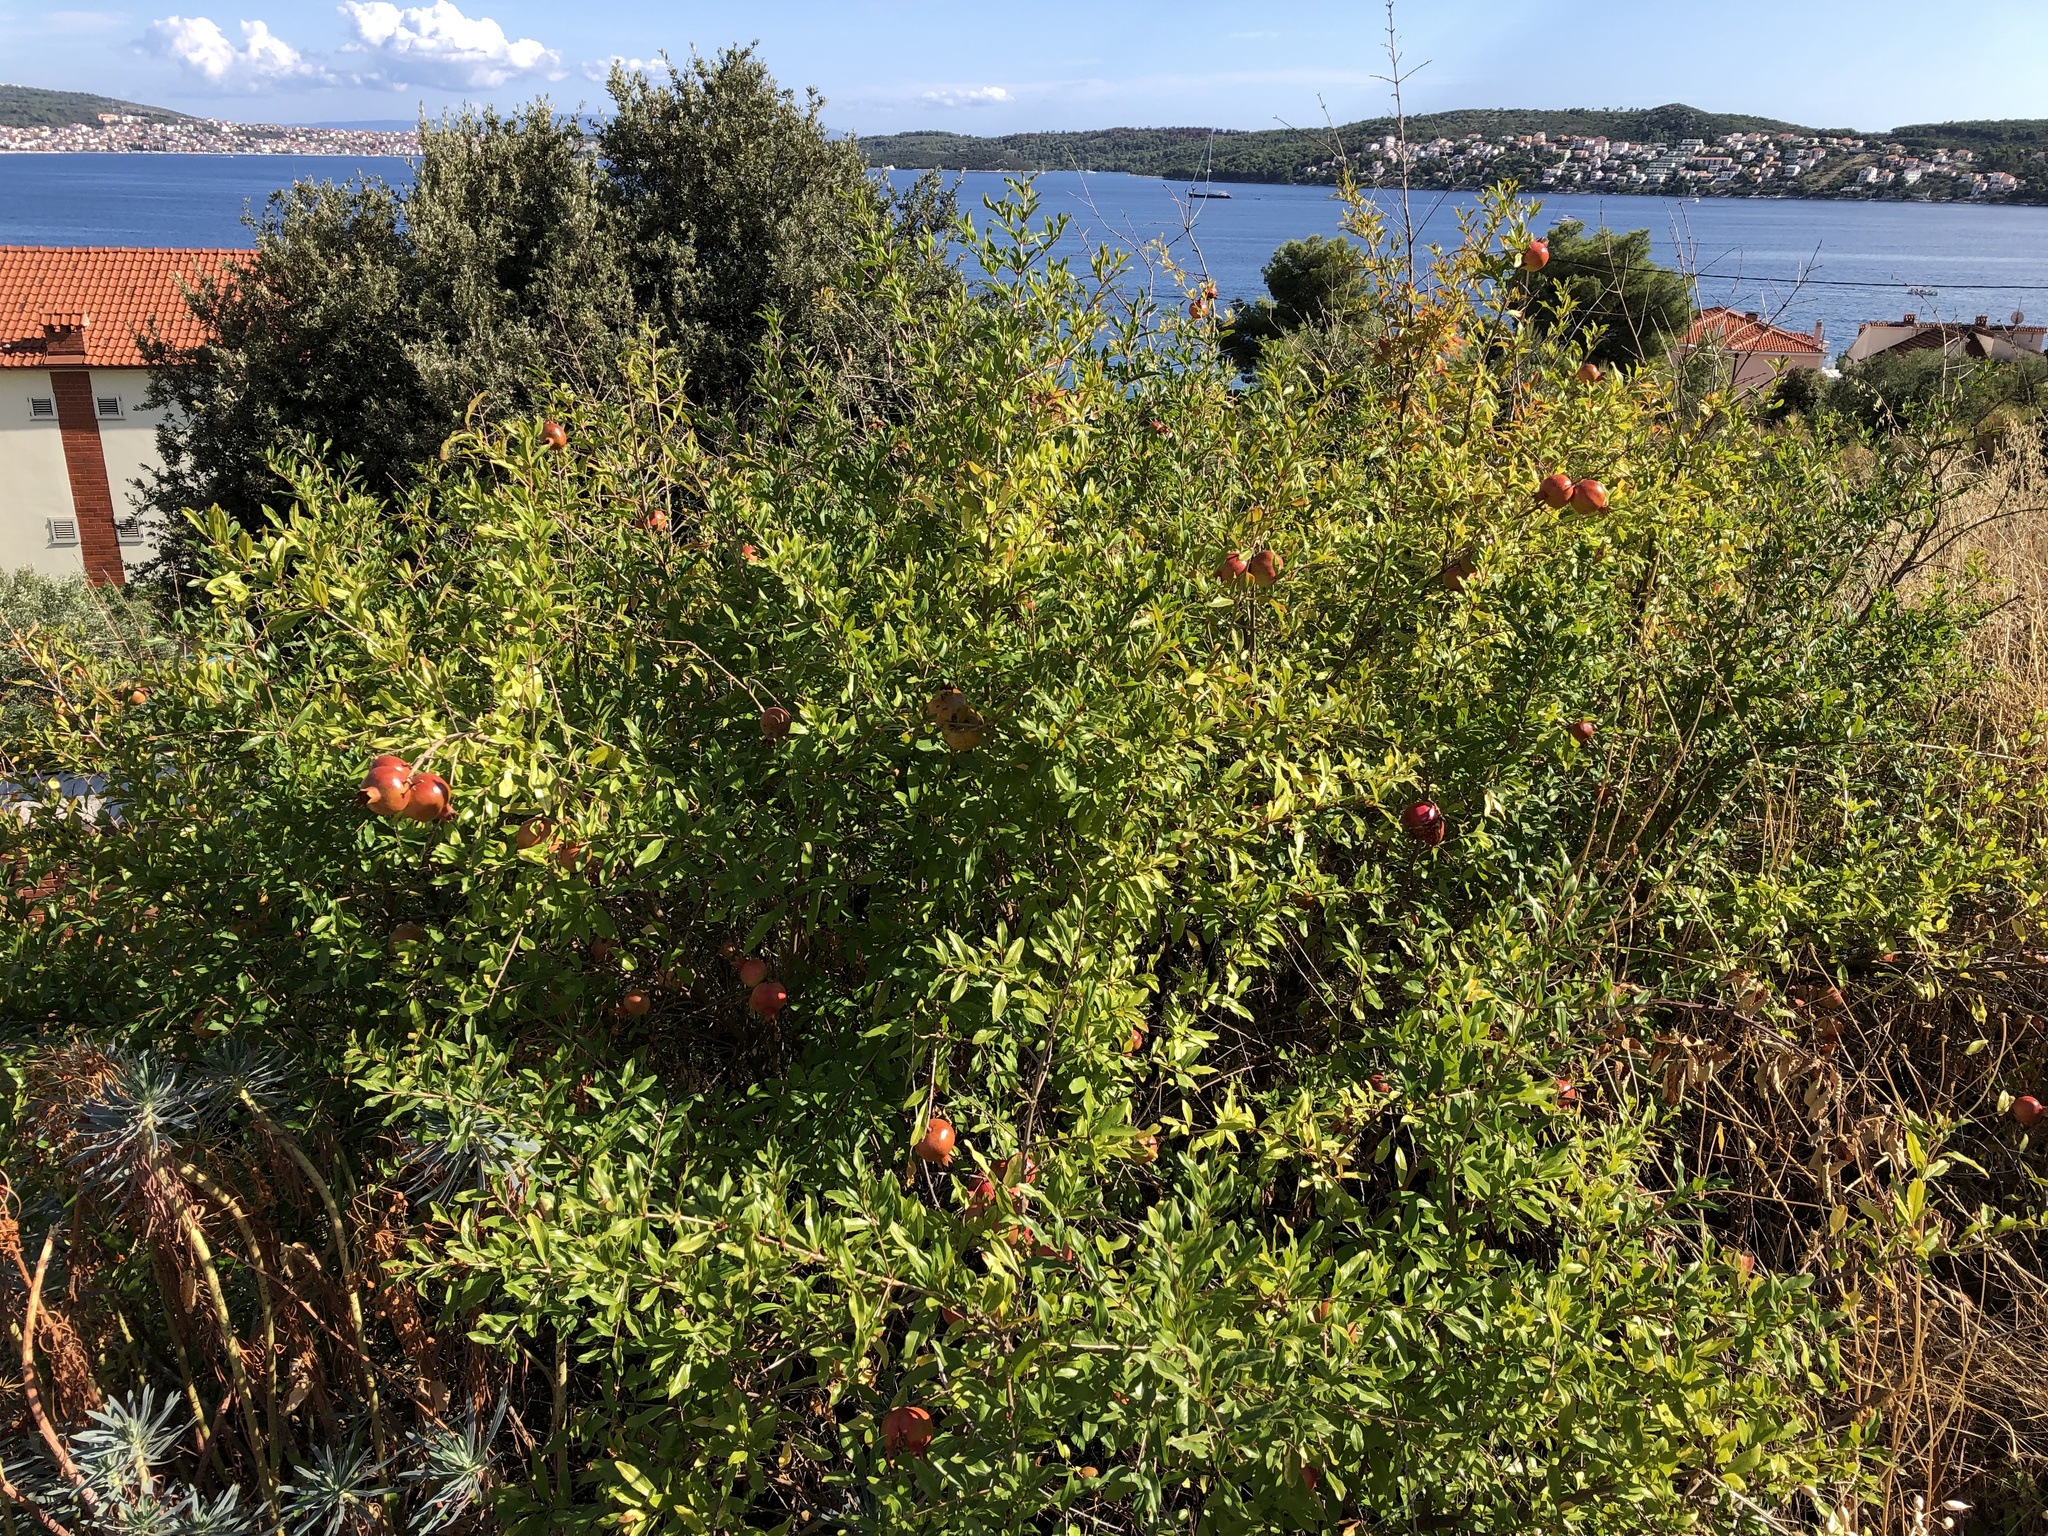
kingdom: Plantae
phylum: Tracheophyta
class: Magnoliopsida
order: Myrtales
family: Lythraceae
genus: Punica
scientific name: Punica granatum
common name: Pomegranate
